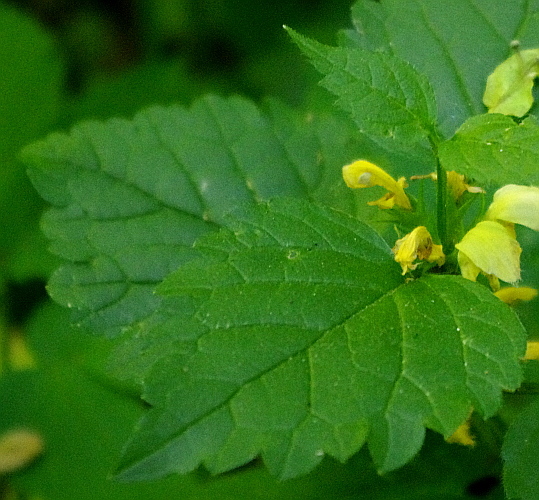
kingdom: Plantae
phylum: Tracheophyta
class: Magnoliopsida
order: Lamiales
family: Lamiaceae
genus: Lamium
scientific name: Lamium galeobdolon
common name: Yellow archangel
